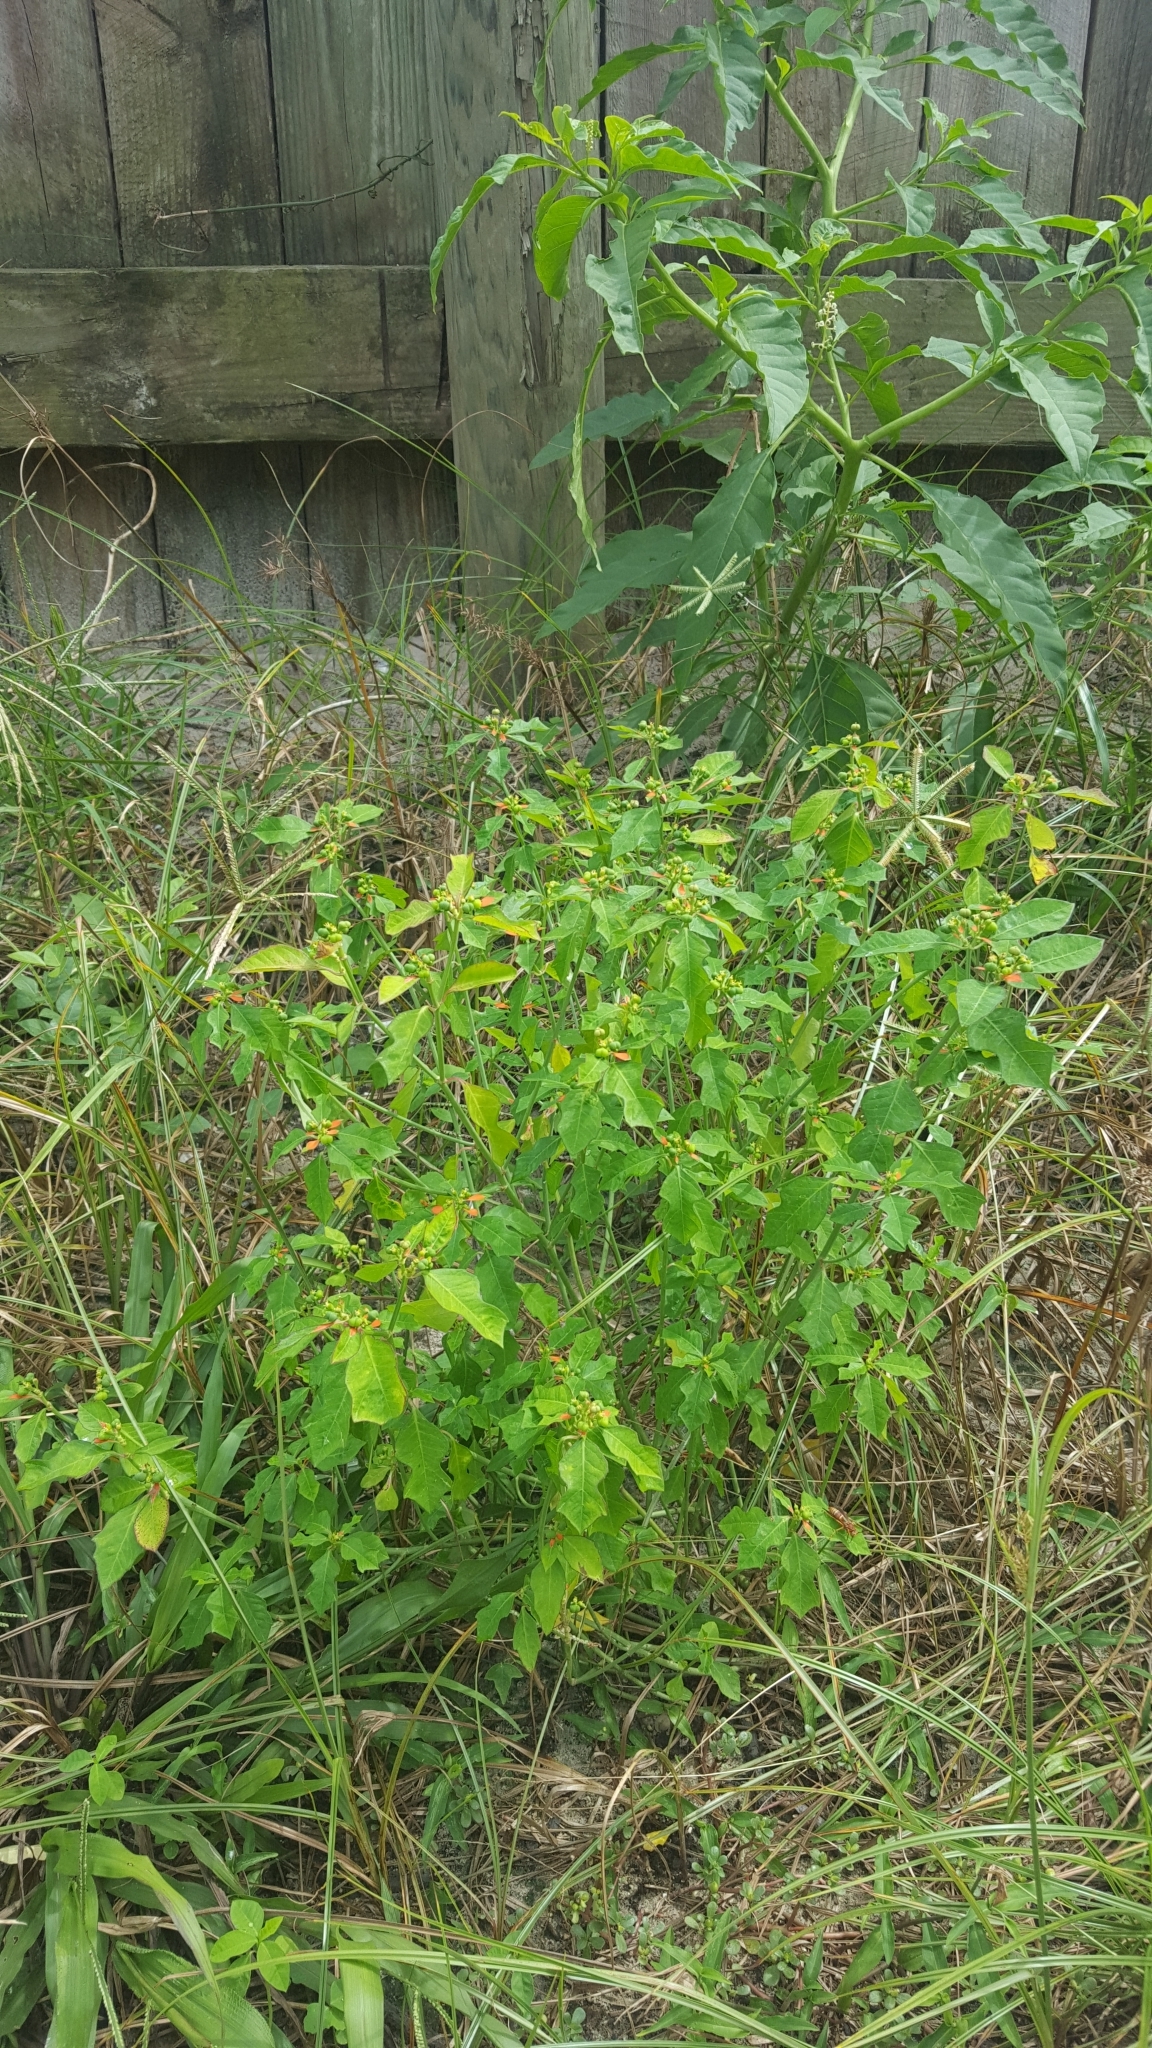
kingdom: Plantae
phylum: Tracheophyta
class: Magnoliopsida
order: Malpighiales
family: Euphorbiaceae
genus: Euphorbia
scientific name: Euphorbia heterophylla
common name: Mexican fireplant
